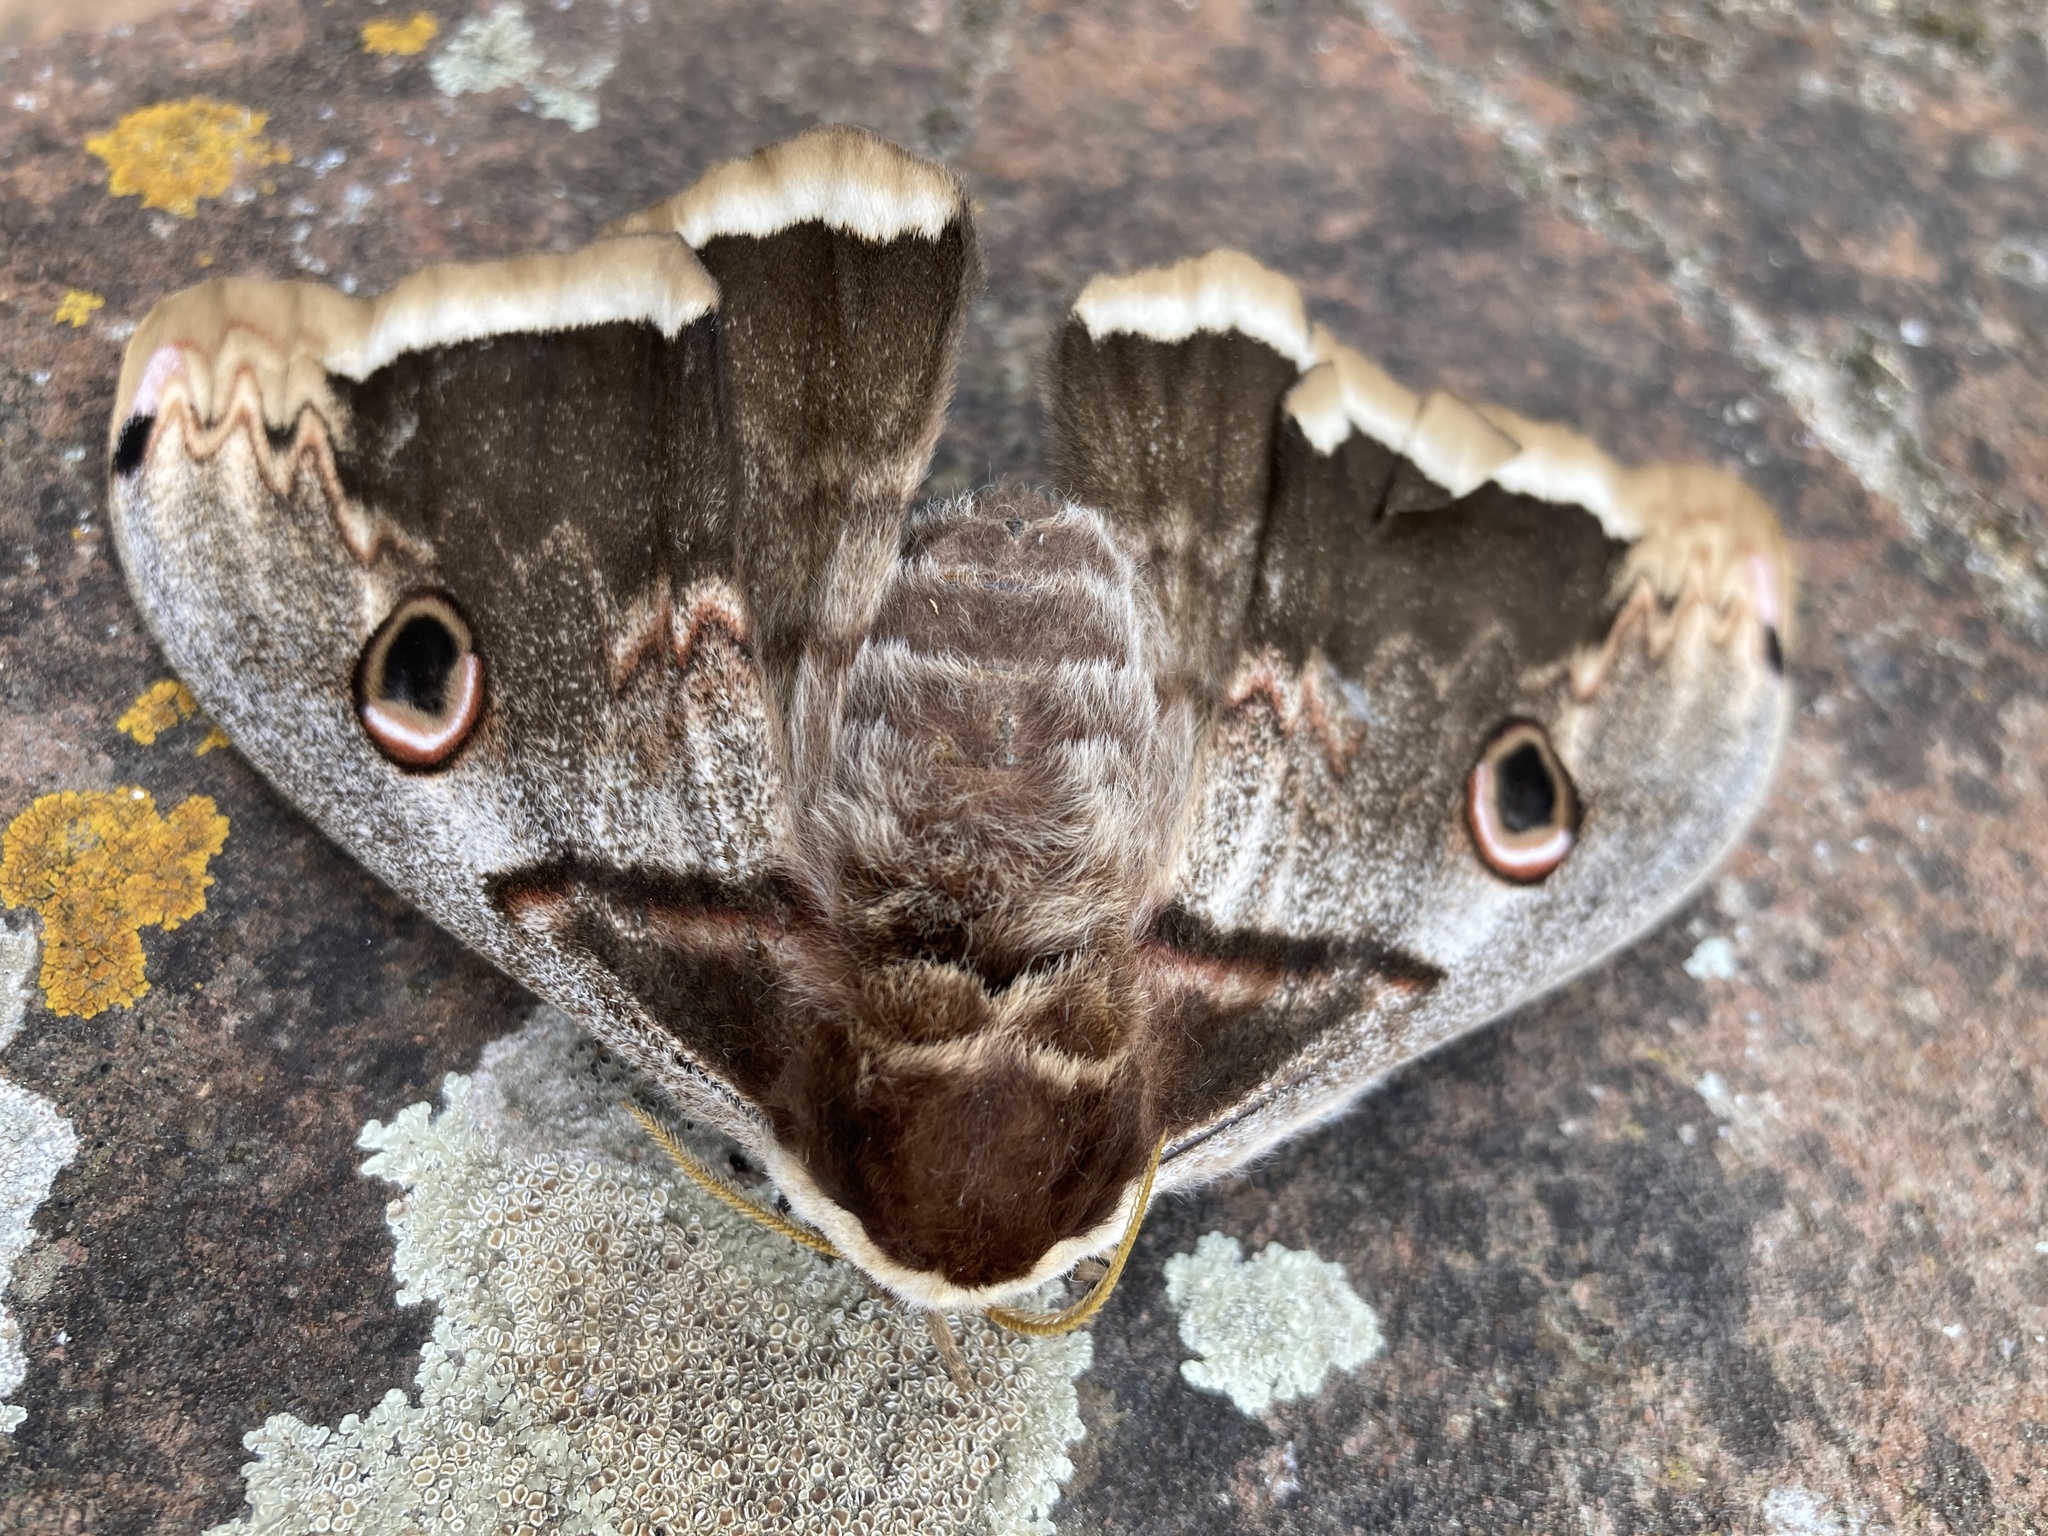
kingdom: Animalia
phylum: Arthropoda
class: Insecta
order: Lepidoptera
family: Saturniidae
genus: Saturnia
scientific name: Saturnia pyri
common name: Great peacock moth
